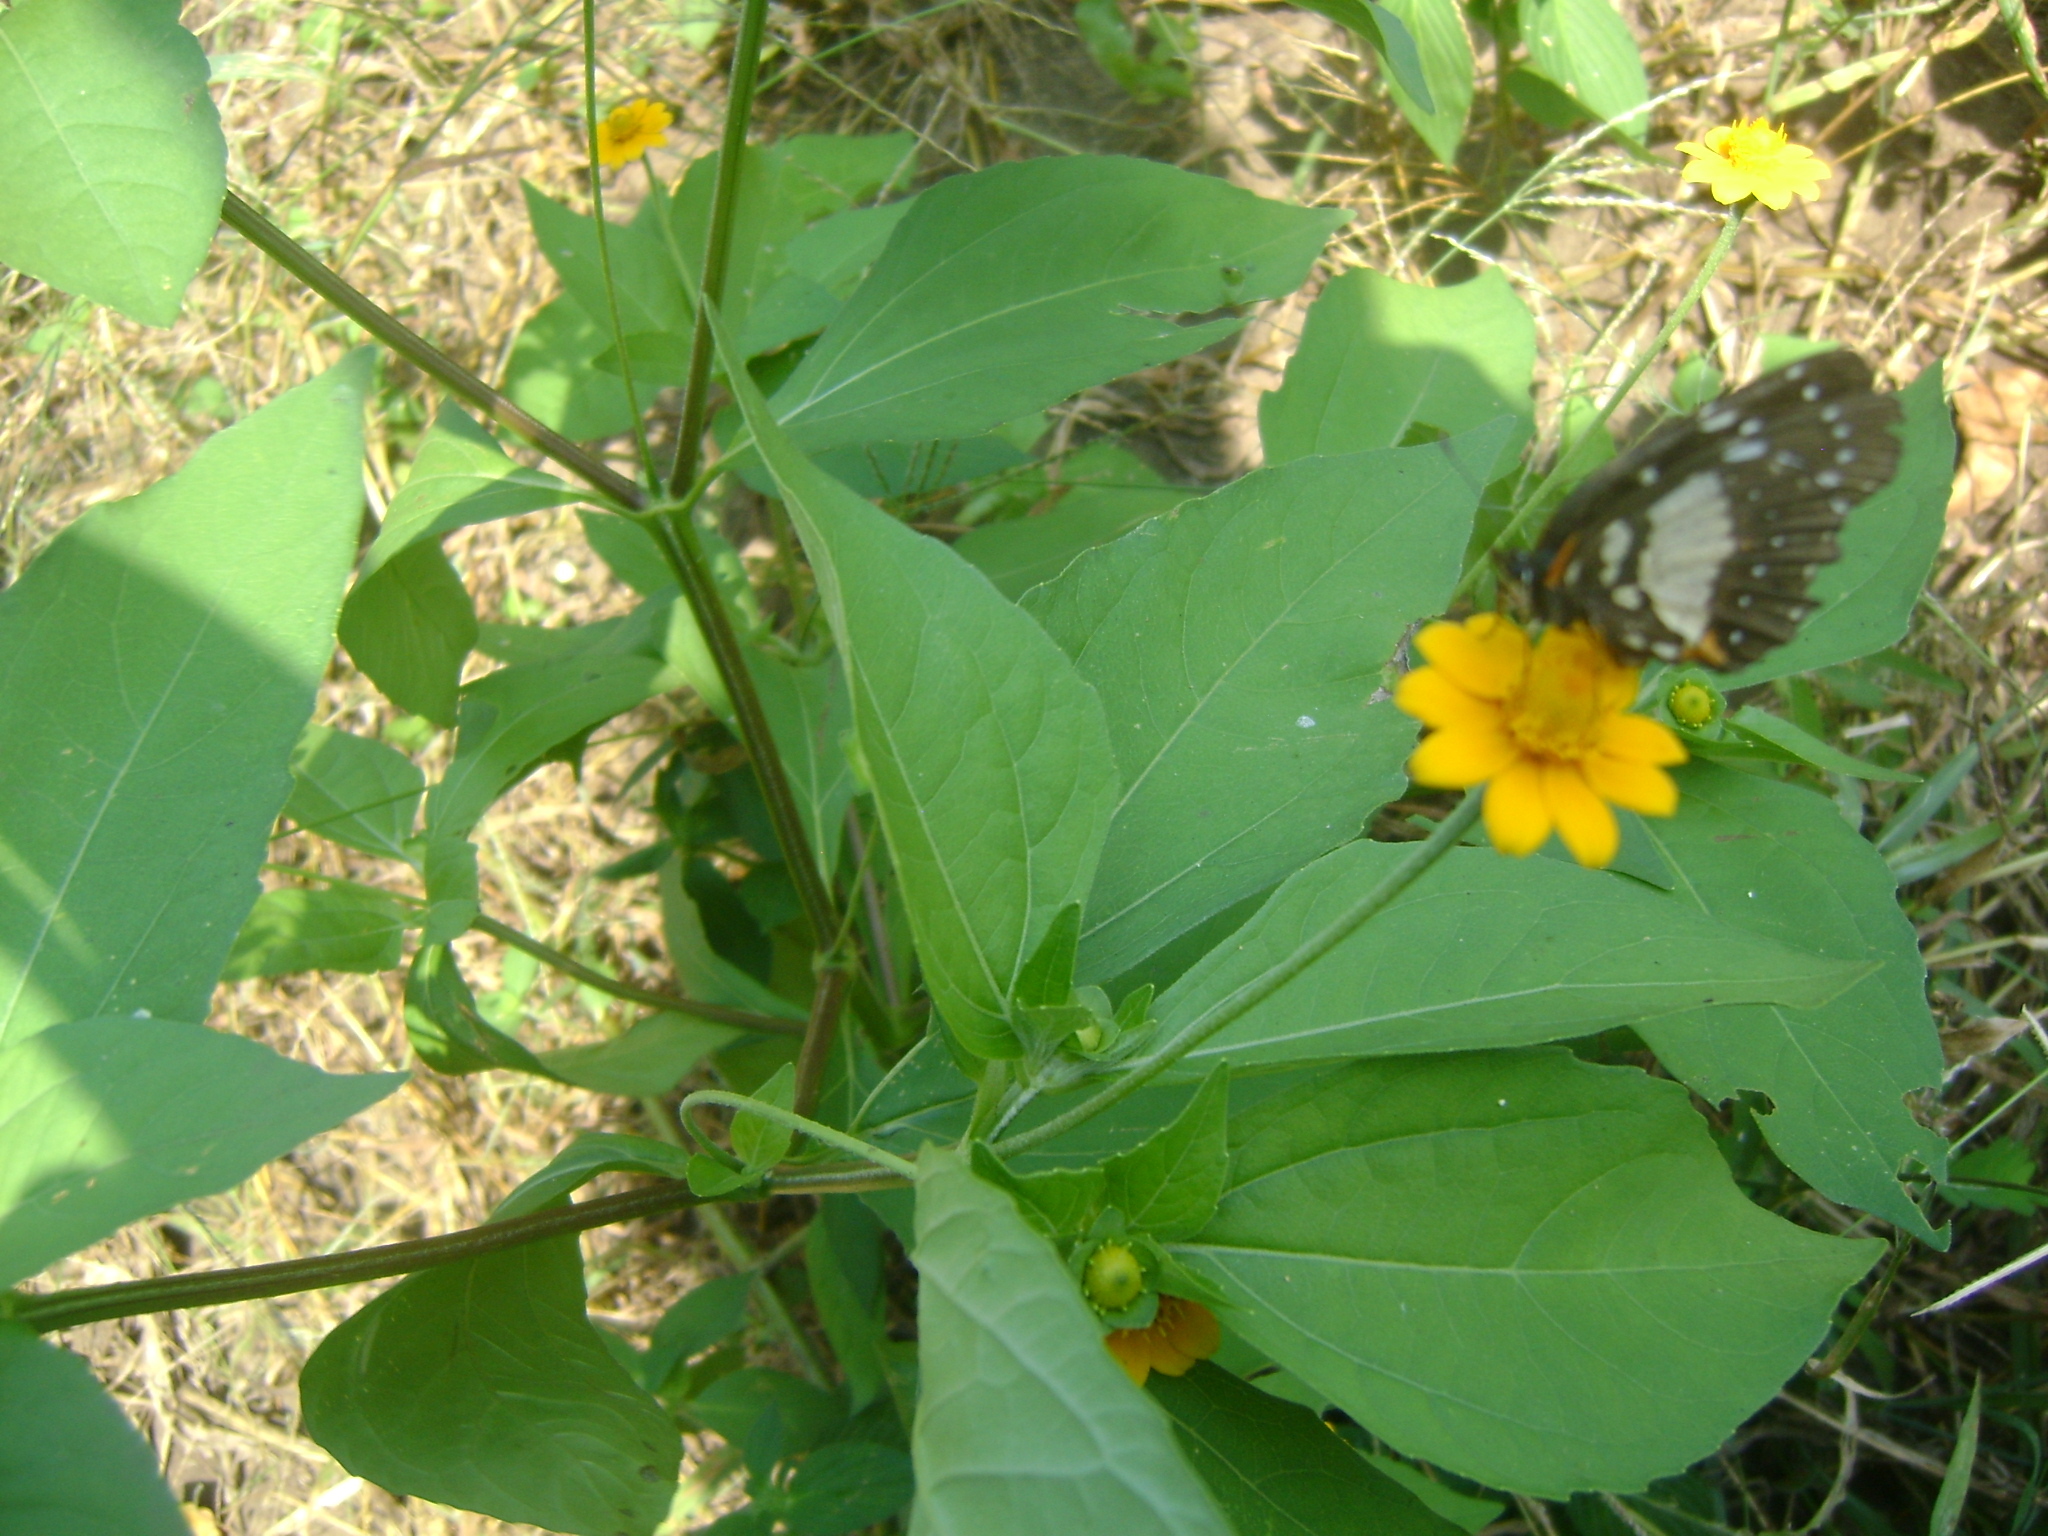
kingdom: Animalia
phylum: Arthropoda
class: Insecta
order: Lepidoptera
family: Nymphalidae
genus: Chlosyne
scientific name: Chlosyne lacinia
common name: Bordered patch
